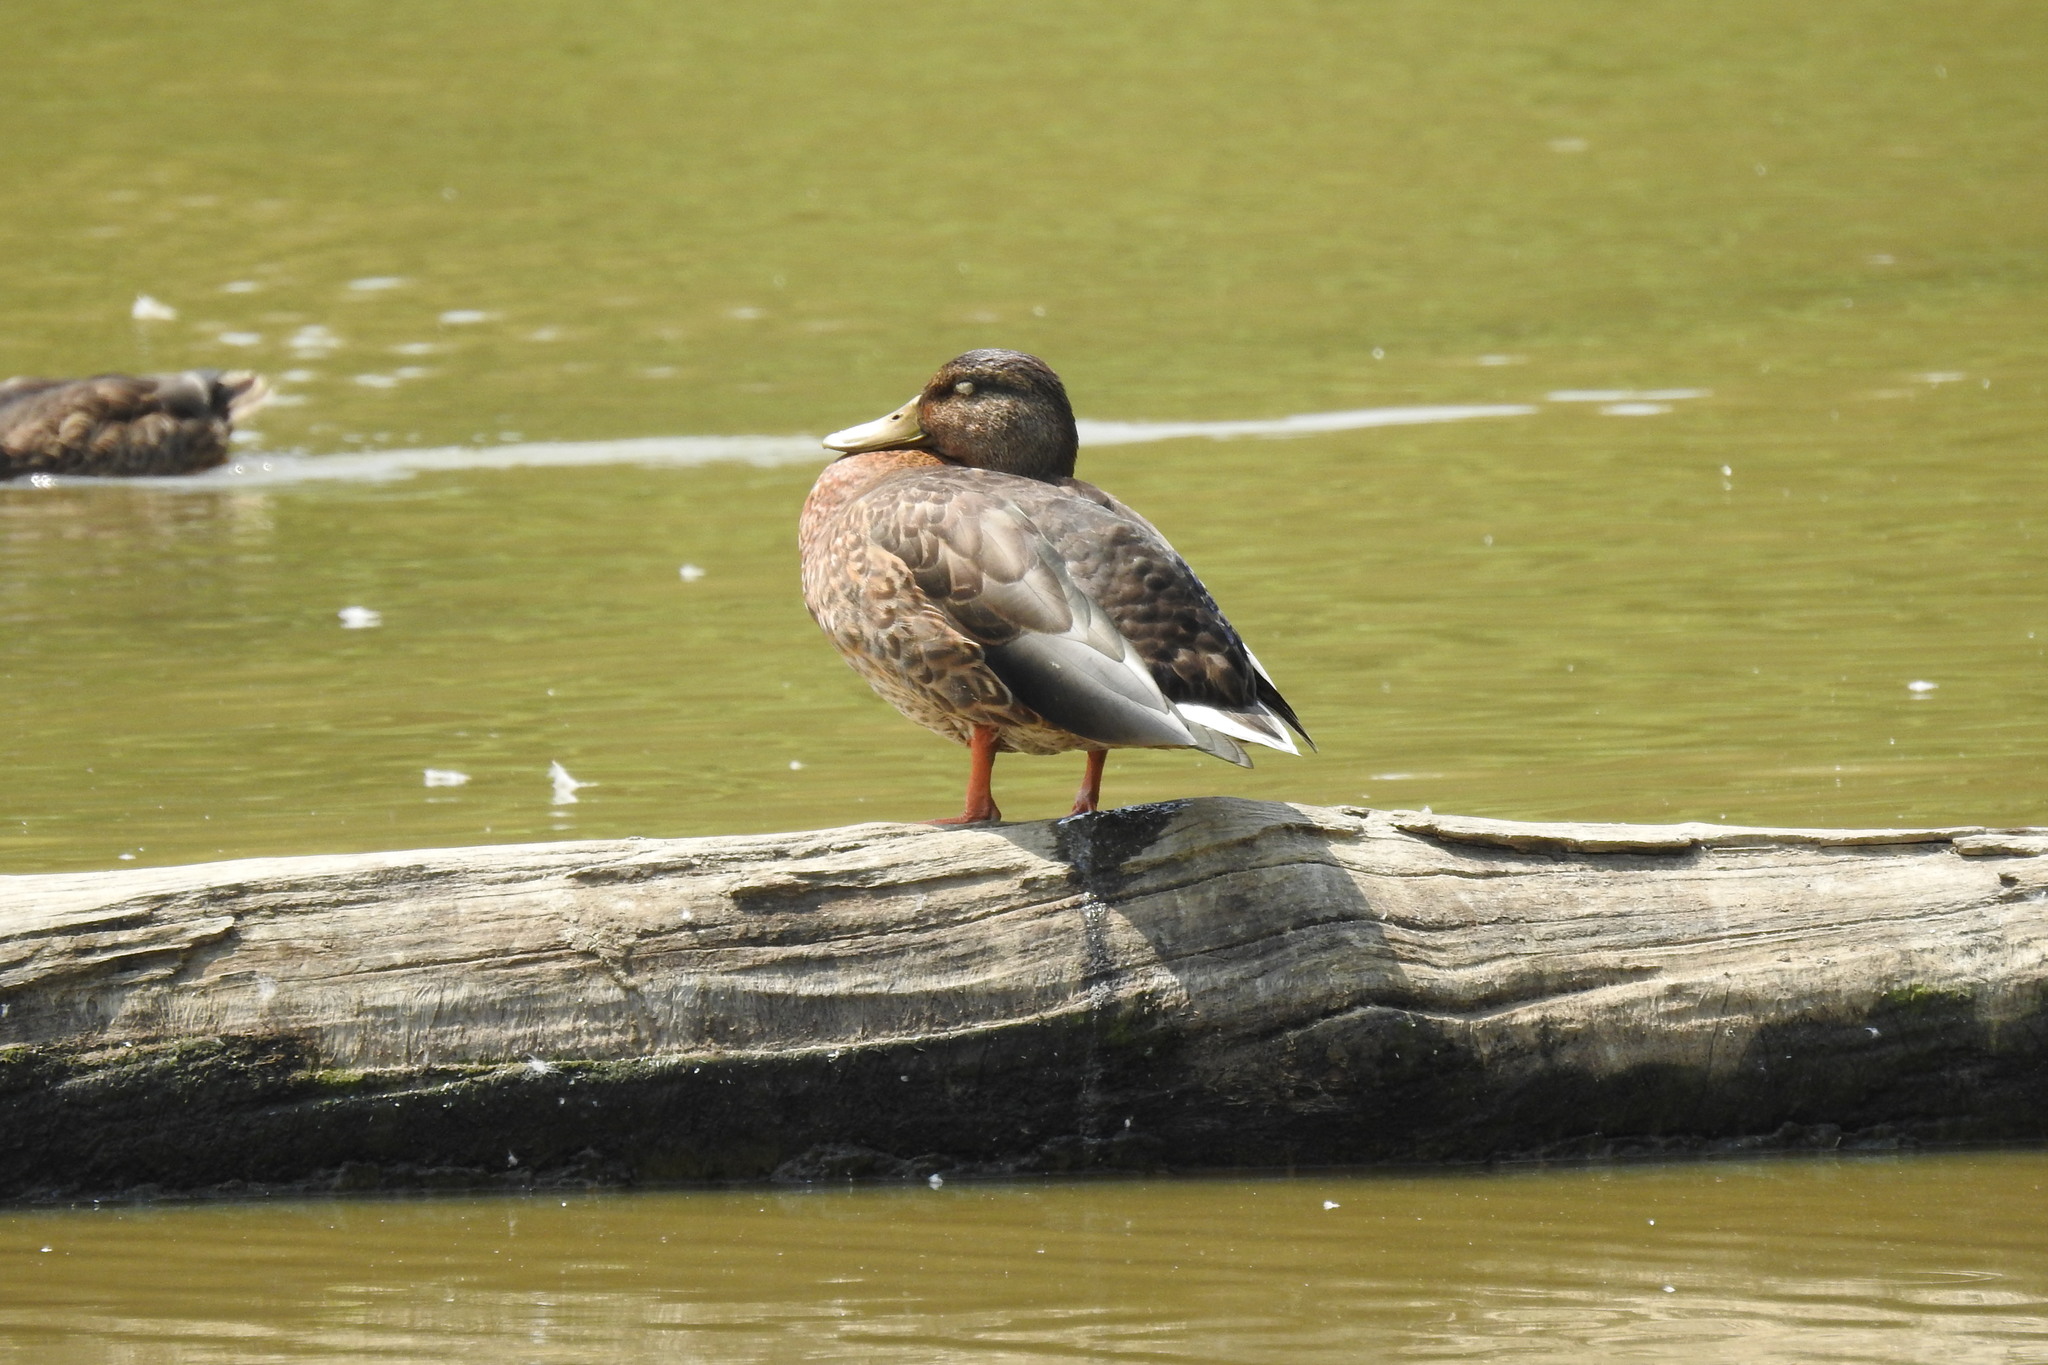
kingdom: Animalia
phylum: Chordata
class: Aves
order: Anseriformes
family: Anatidae
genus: Anas
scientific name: Anas platyrhynchos
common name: Mallard
